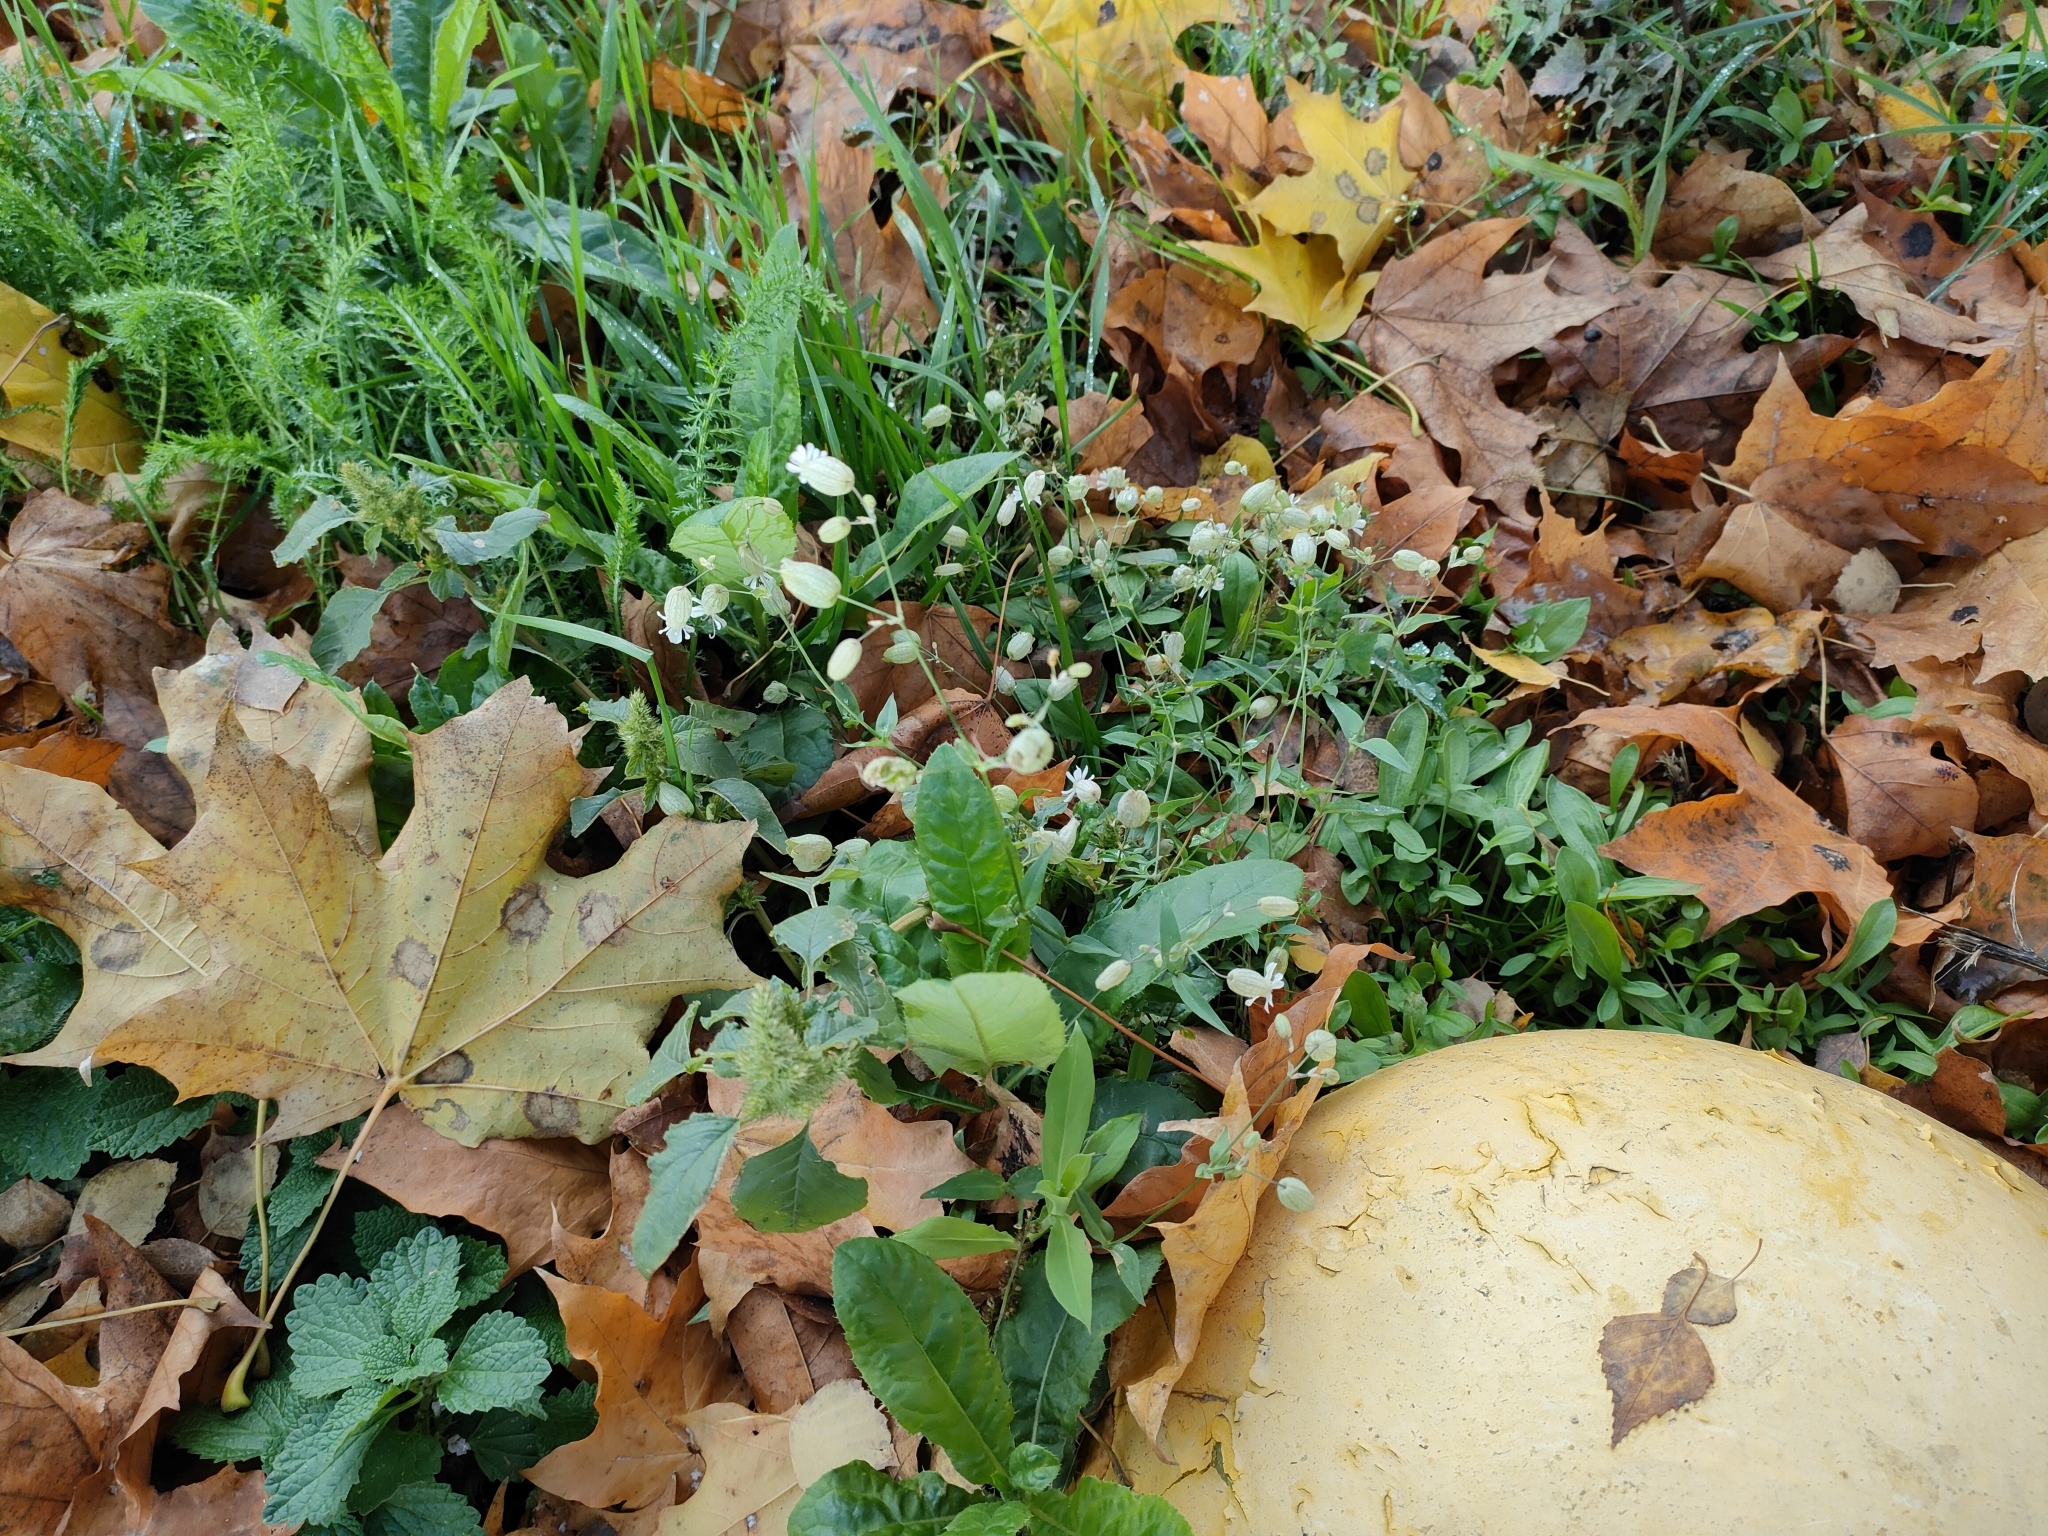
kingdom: Plantae
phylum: Tracheophyta
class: Magnoliopsida
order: Caryophyllales
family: Caryophyllaceae
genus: Silene
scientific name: Silene vulgaris
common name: Bladder campion
